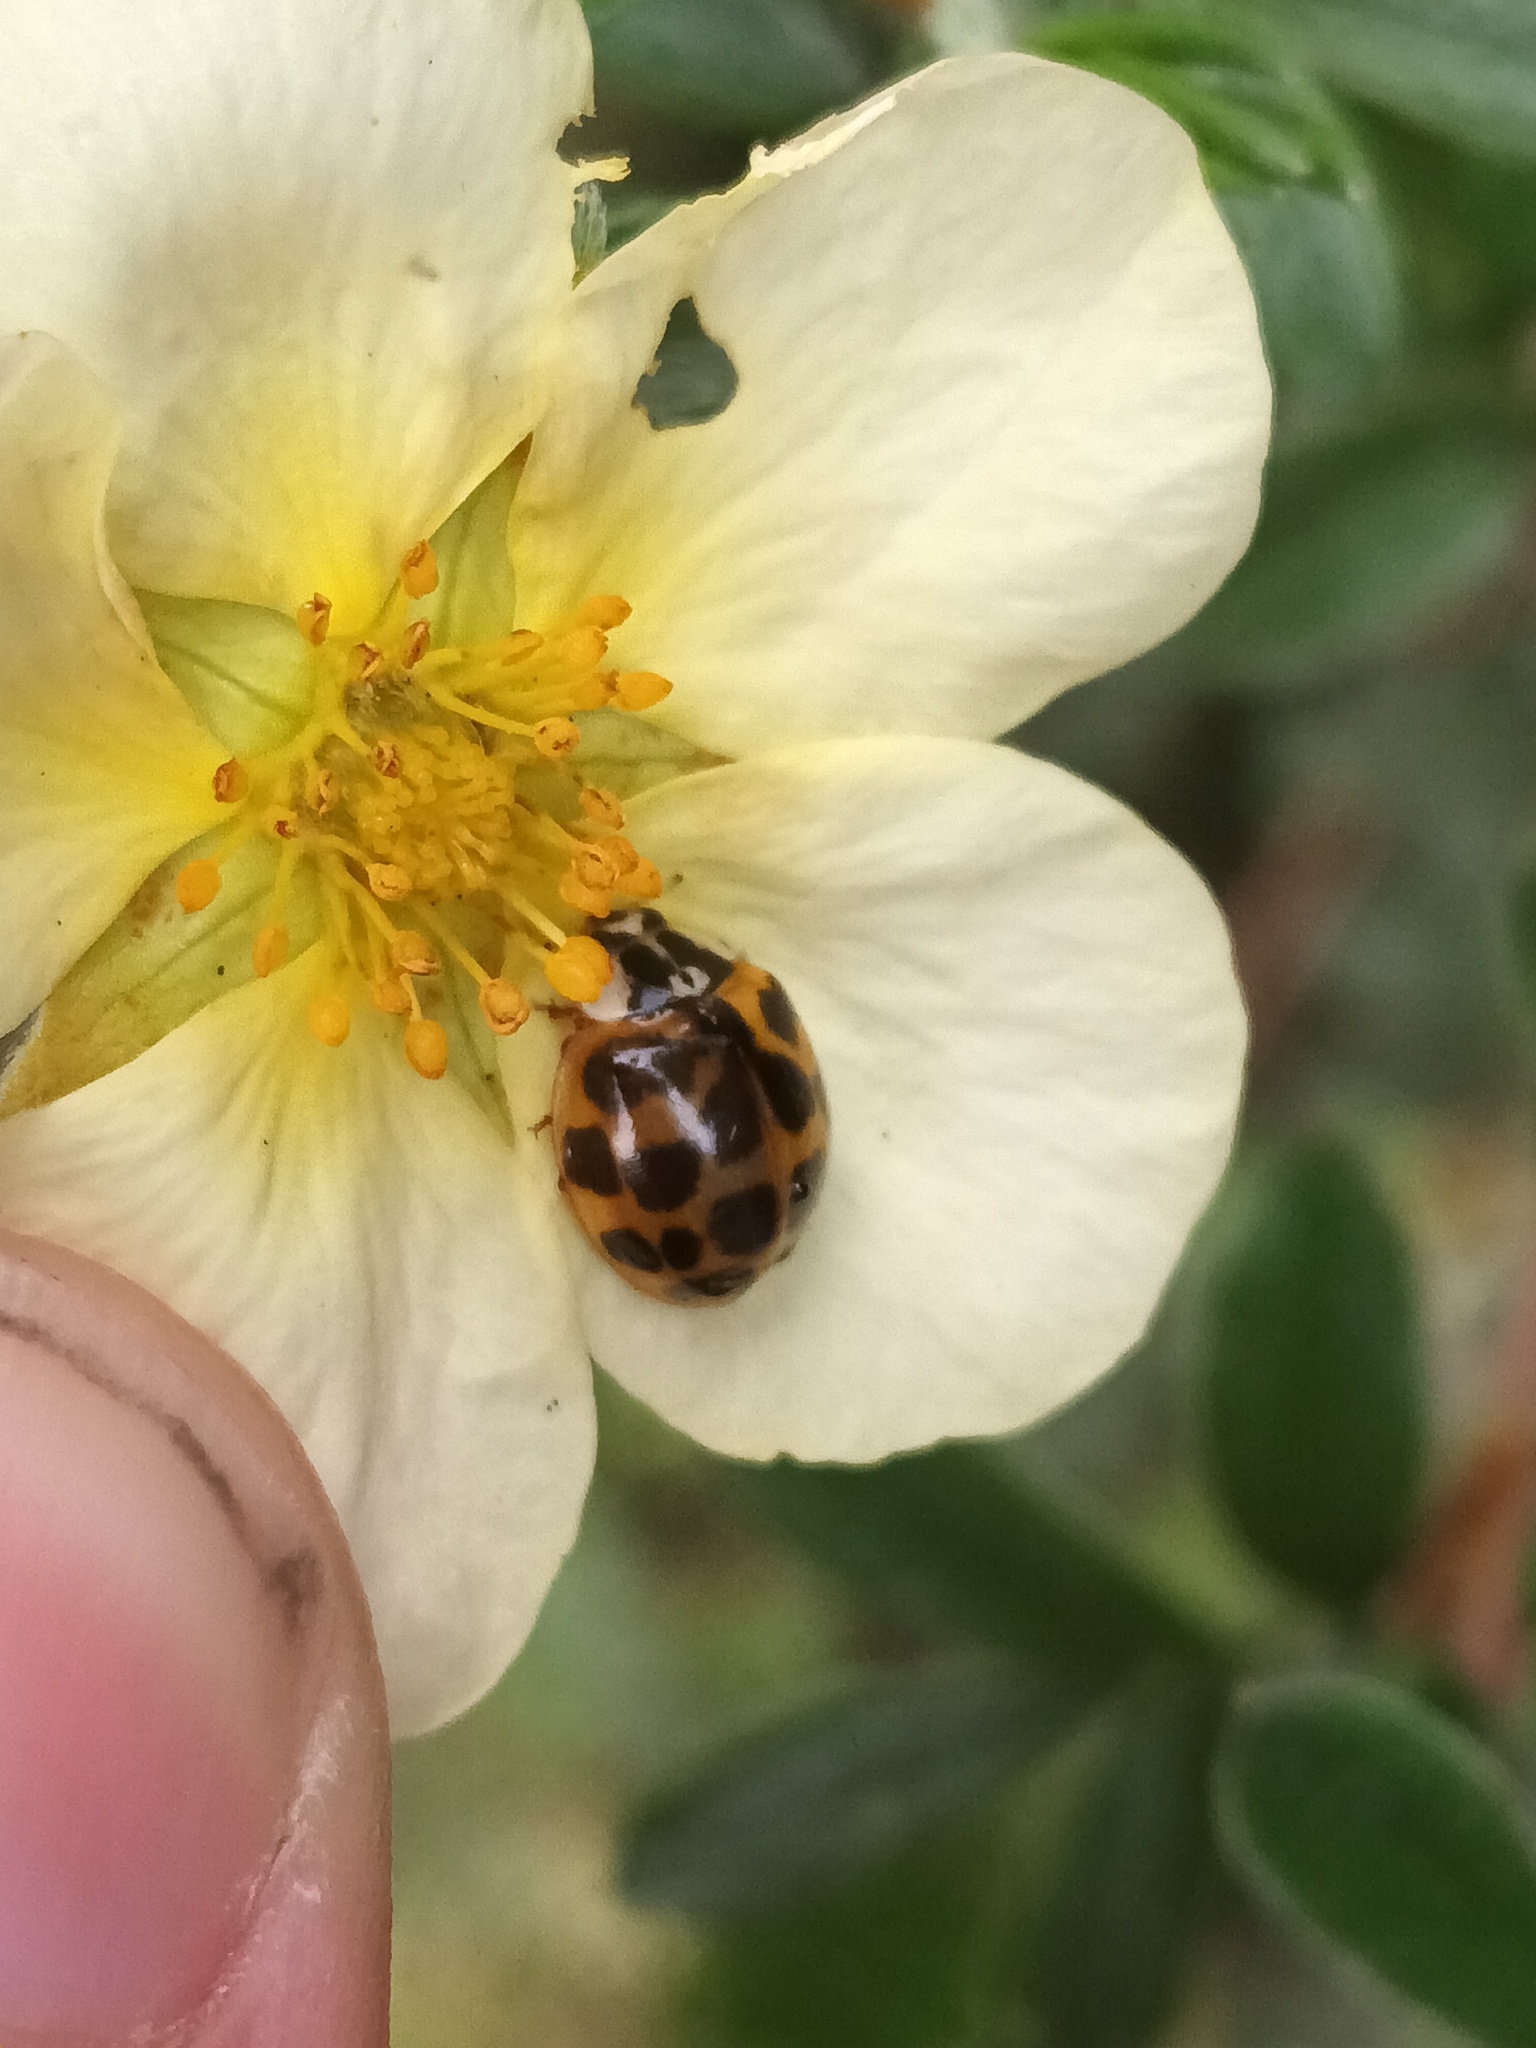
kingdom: Animalia
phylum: Arthropoda
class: Insecta
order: Coleoptera
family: Coccinellidae
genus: Harmonia
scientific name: Harmonia axyridis
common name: Harlequin ladybird
